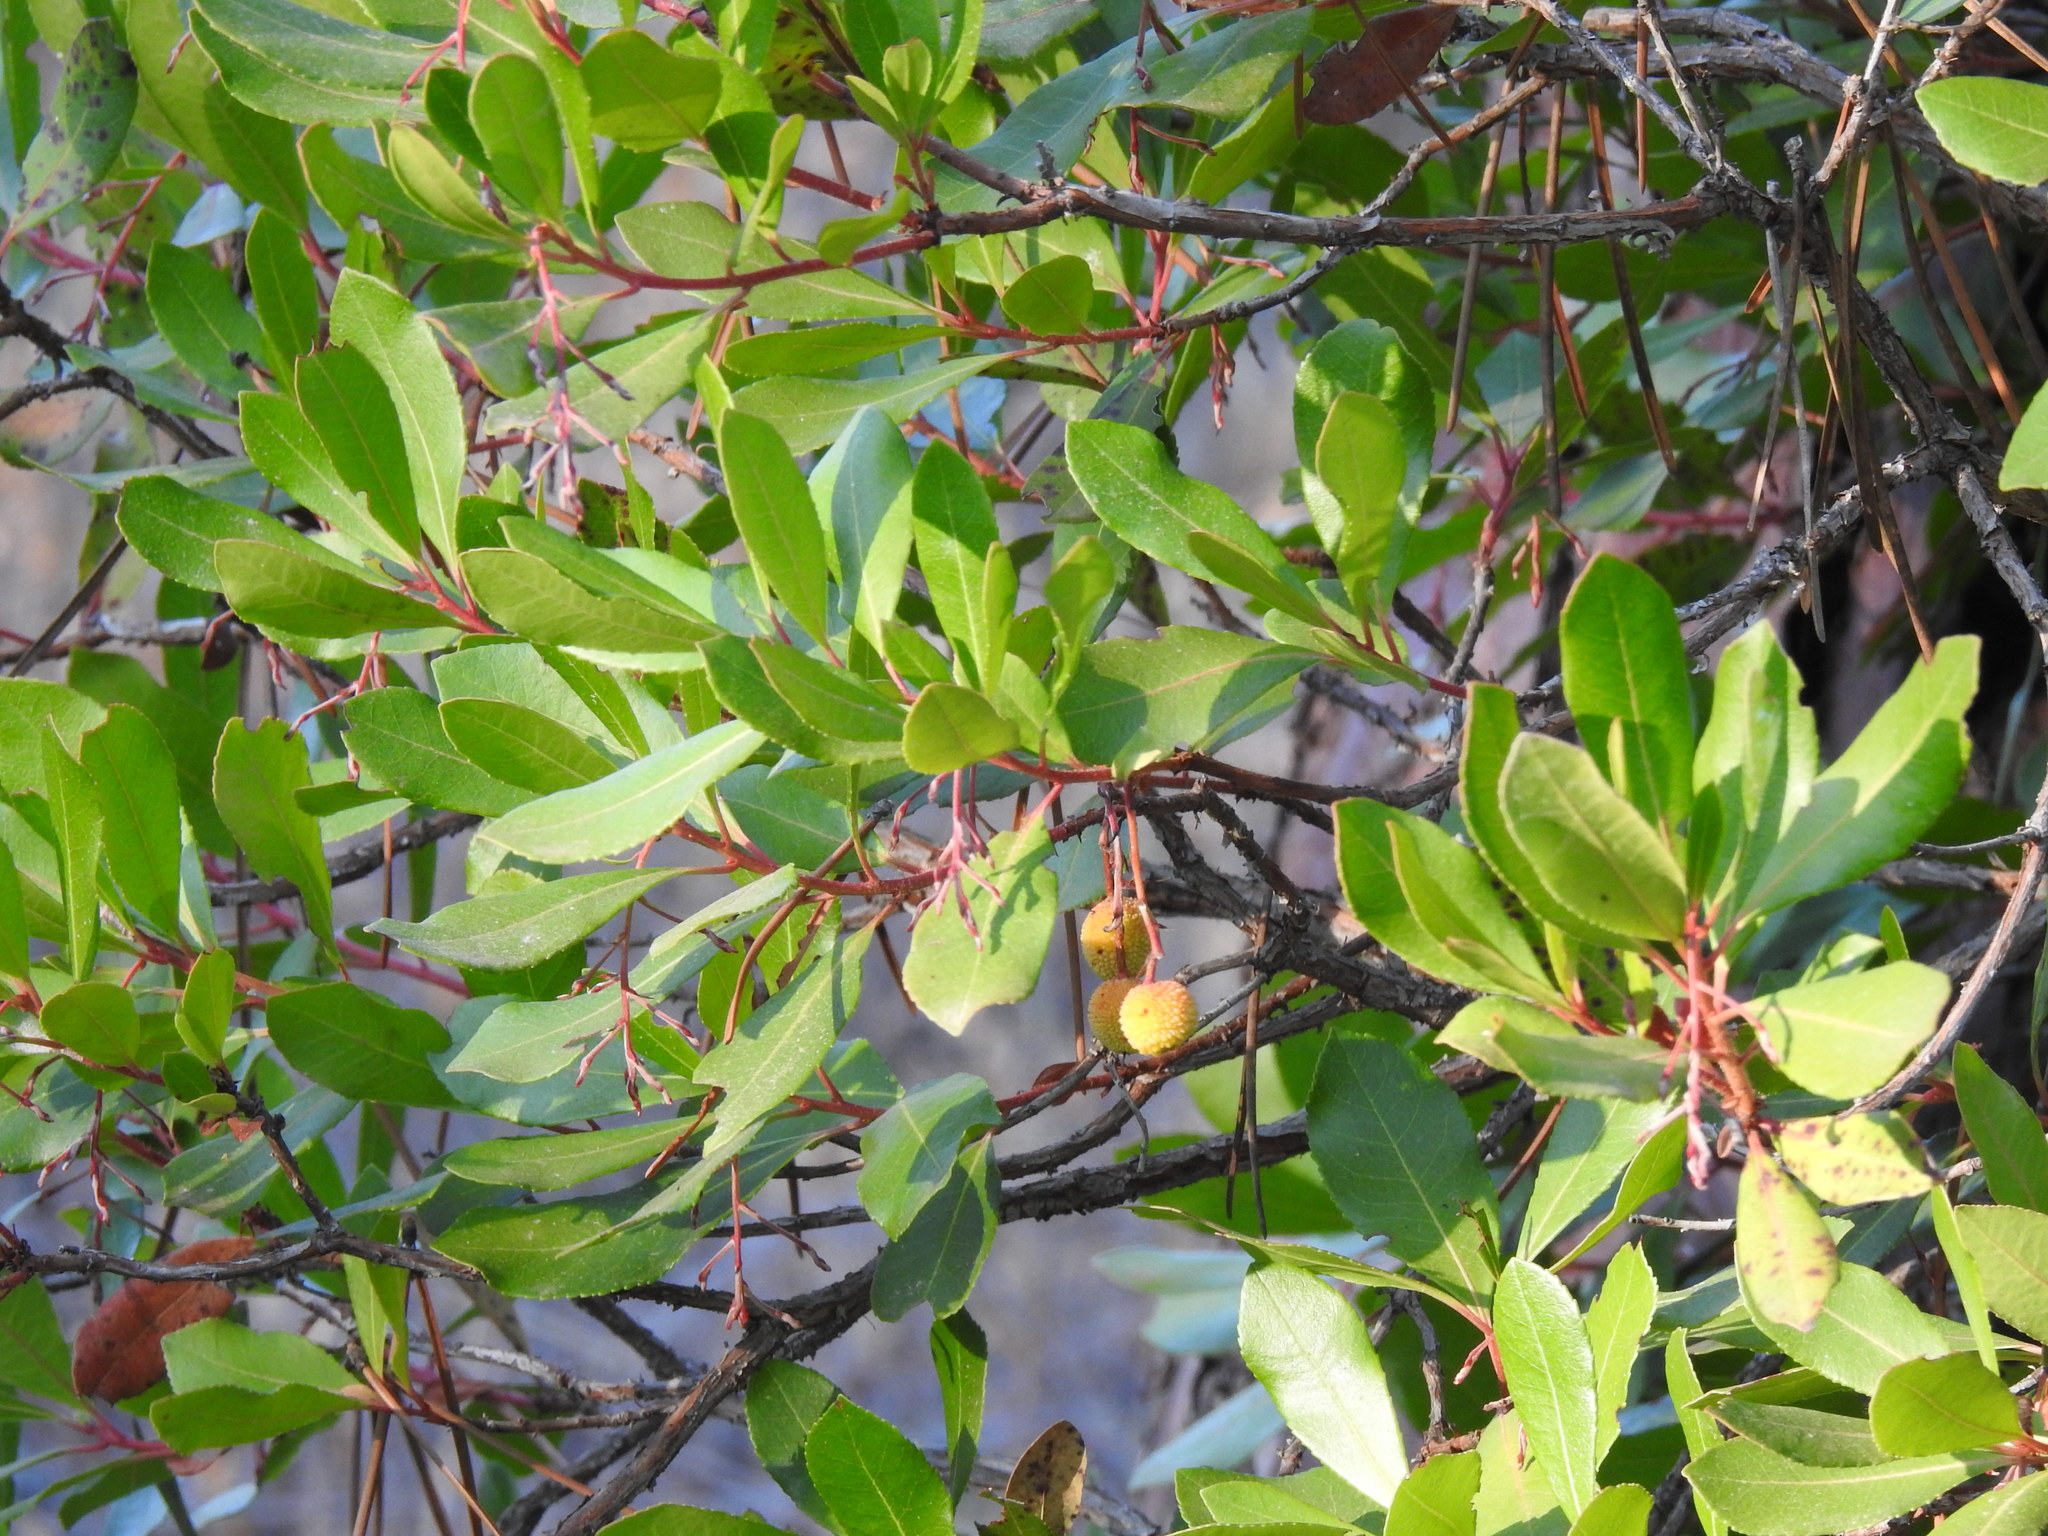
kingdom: Plantae
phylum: Tracheophyta
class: Magnoliopsida
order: Ericales
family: Ericaceae
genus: Arbutus
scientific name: Arbutus unedo
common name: Strawberry-tree
